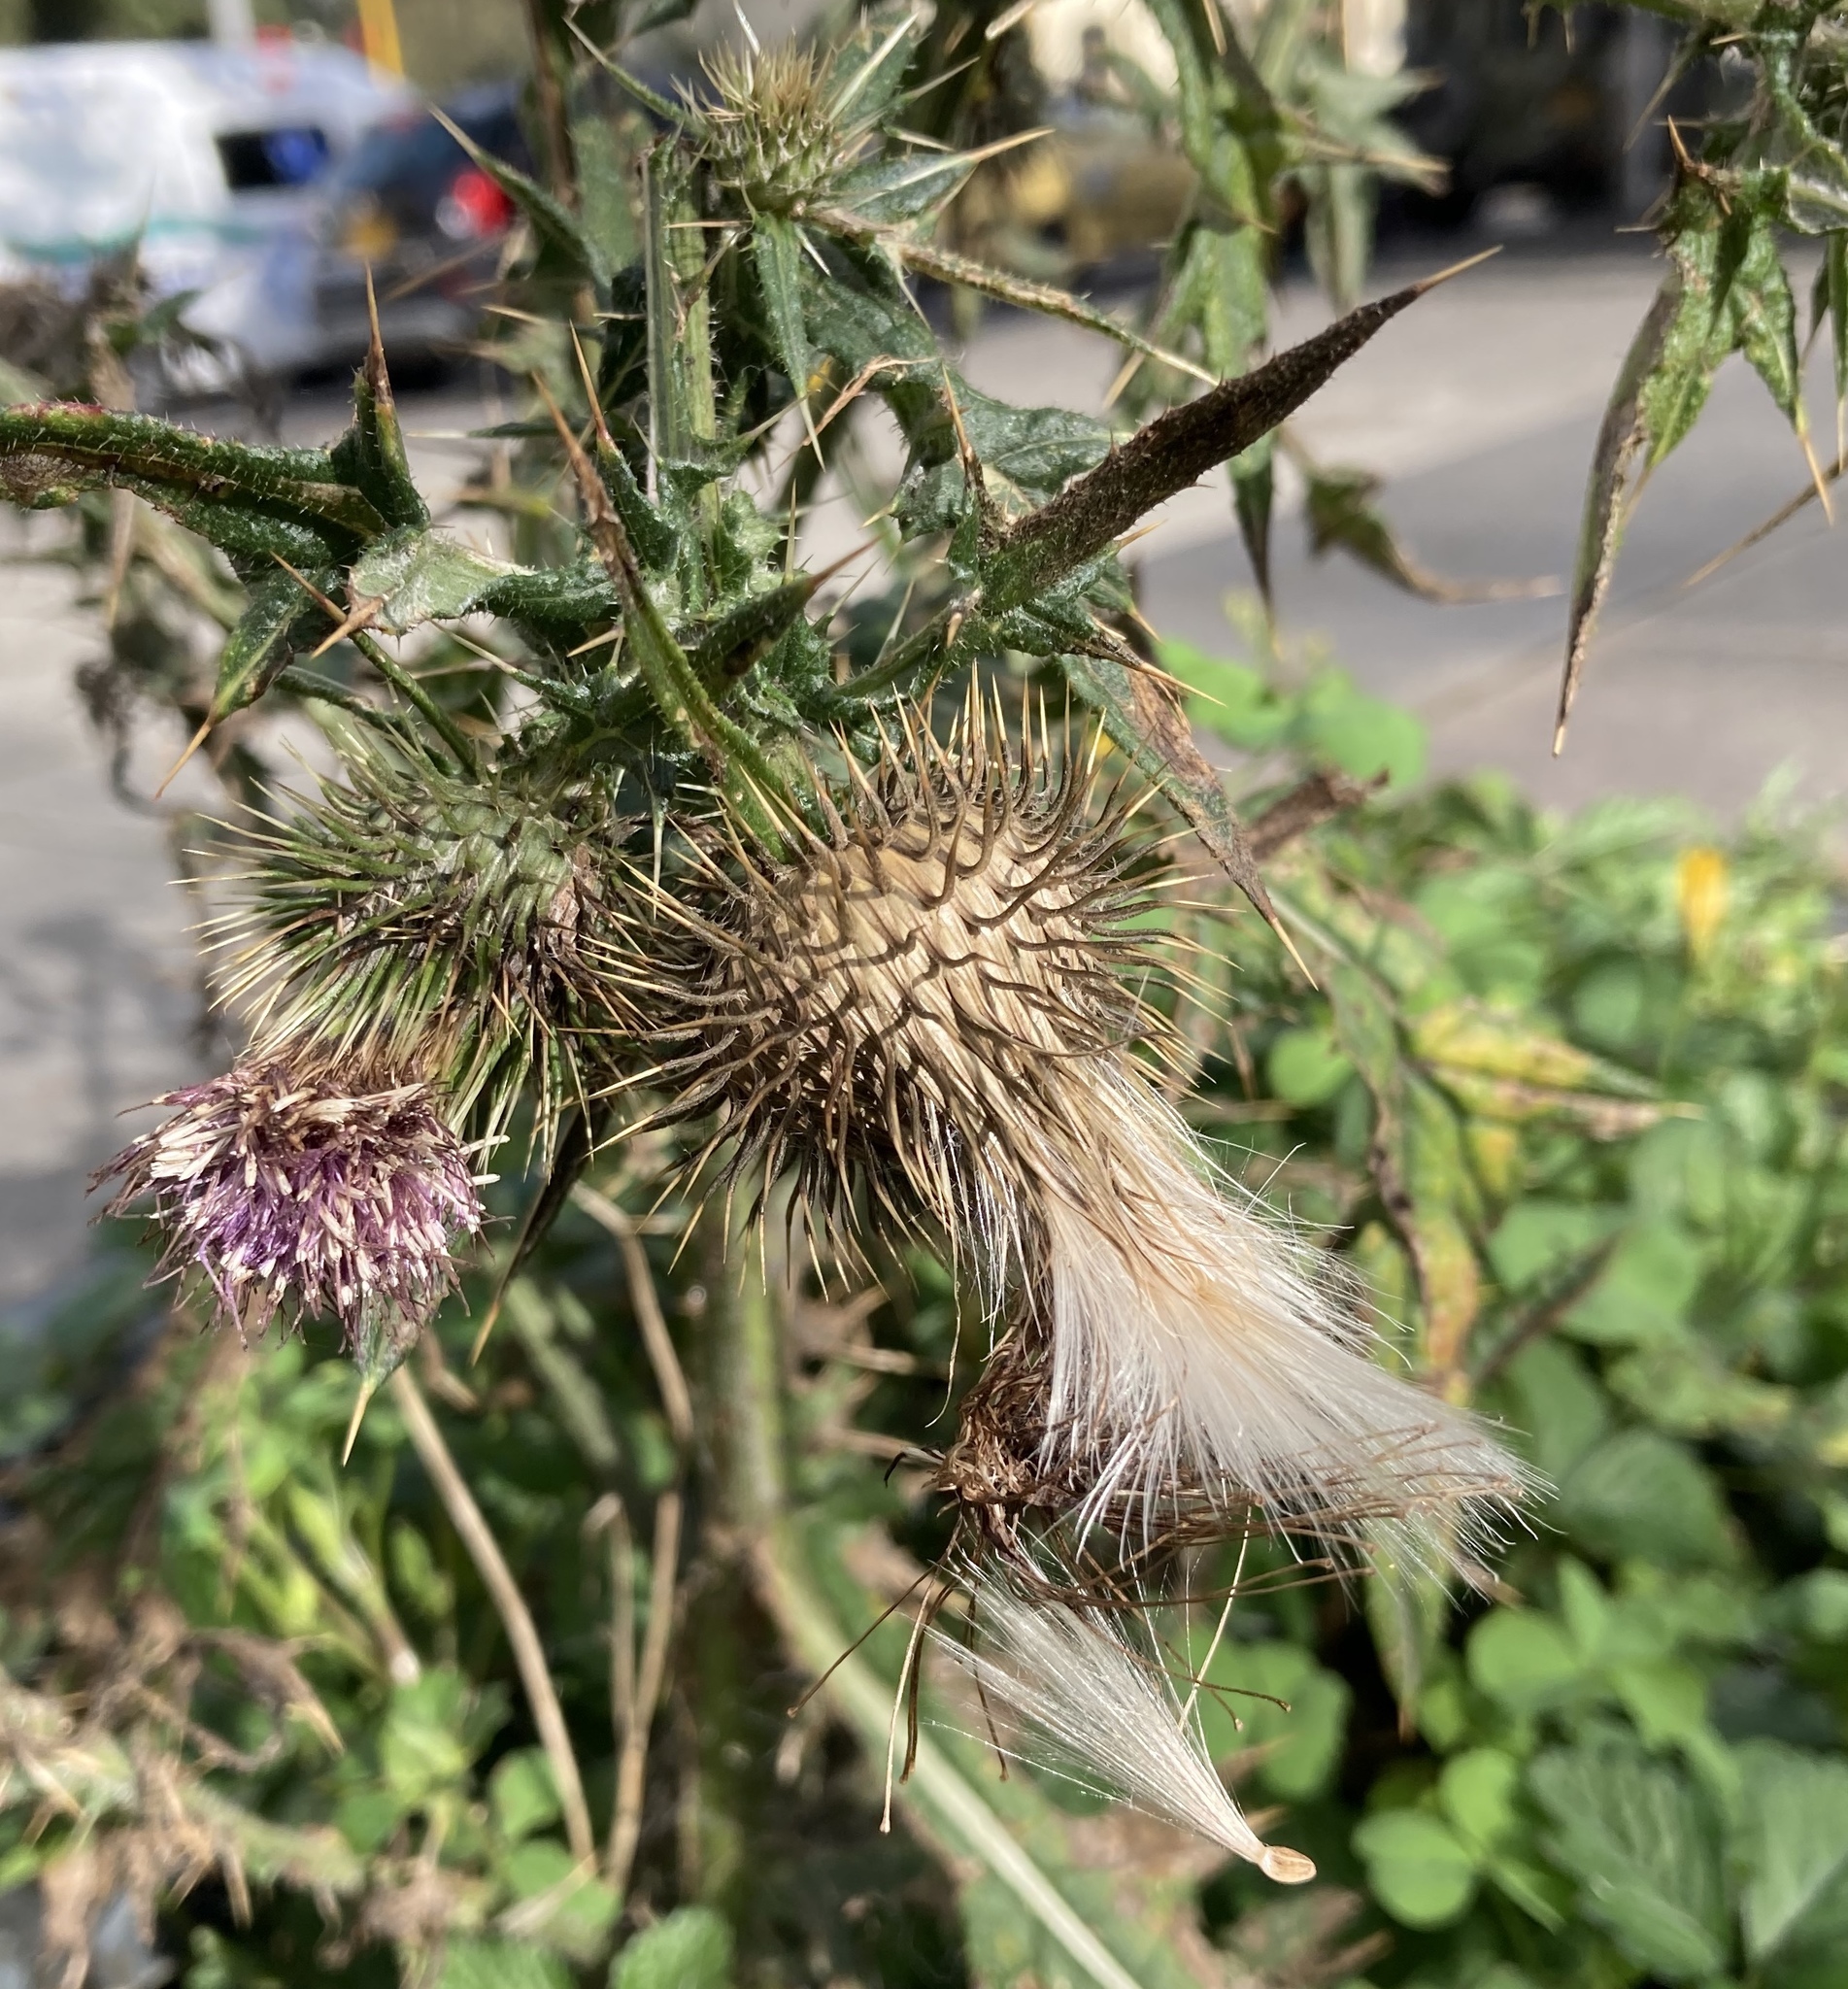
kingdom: Plantae
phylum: Tracheophyta
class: Magnoliopsida
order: Asterales
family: Asteraceae
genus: Cirsium
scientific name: Cirsium vulgare
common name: Bull thistle
